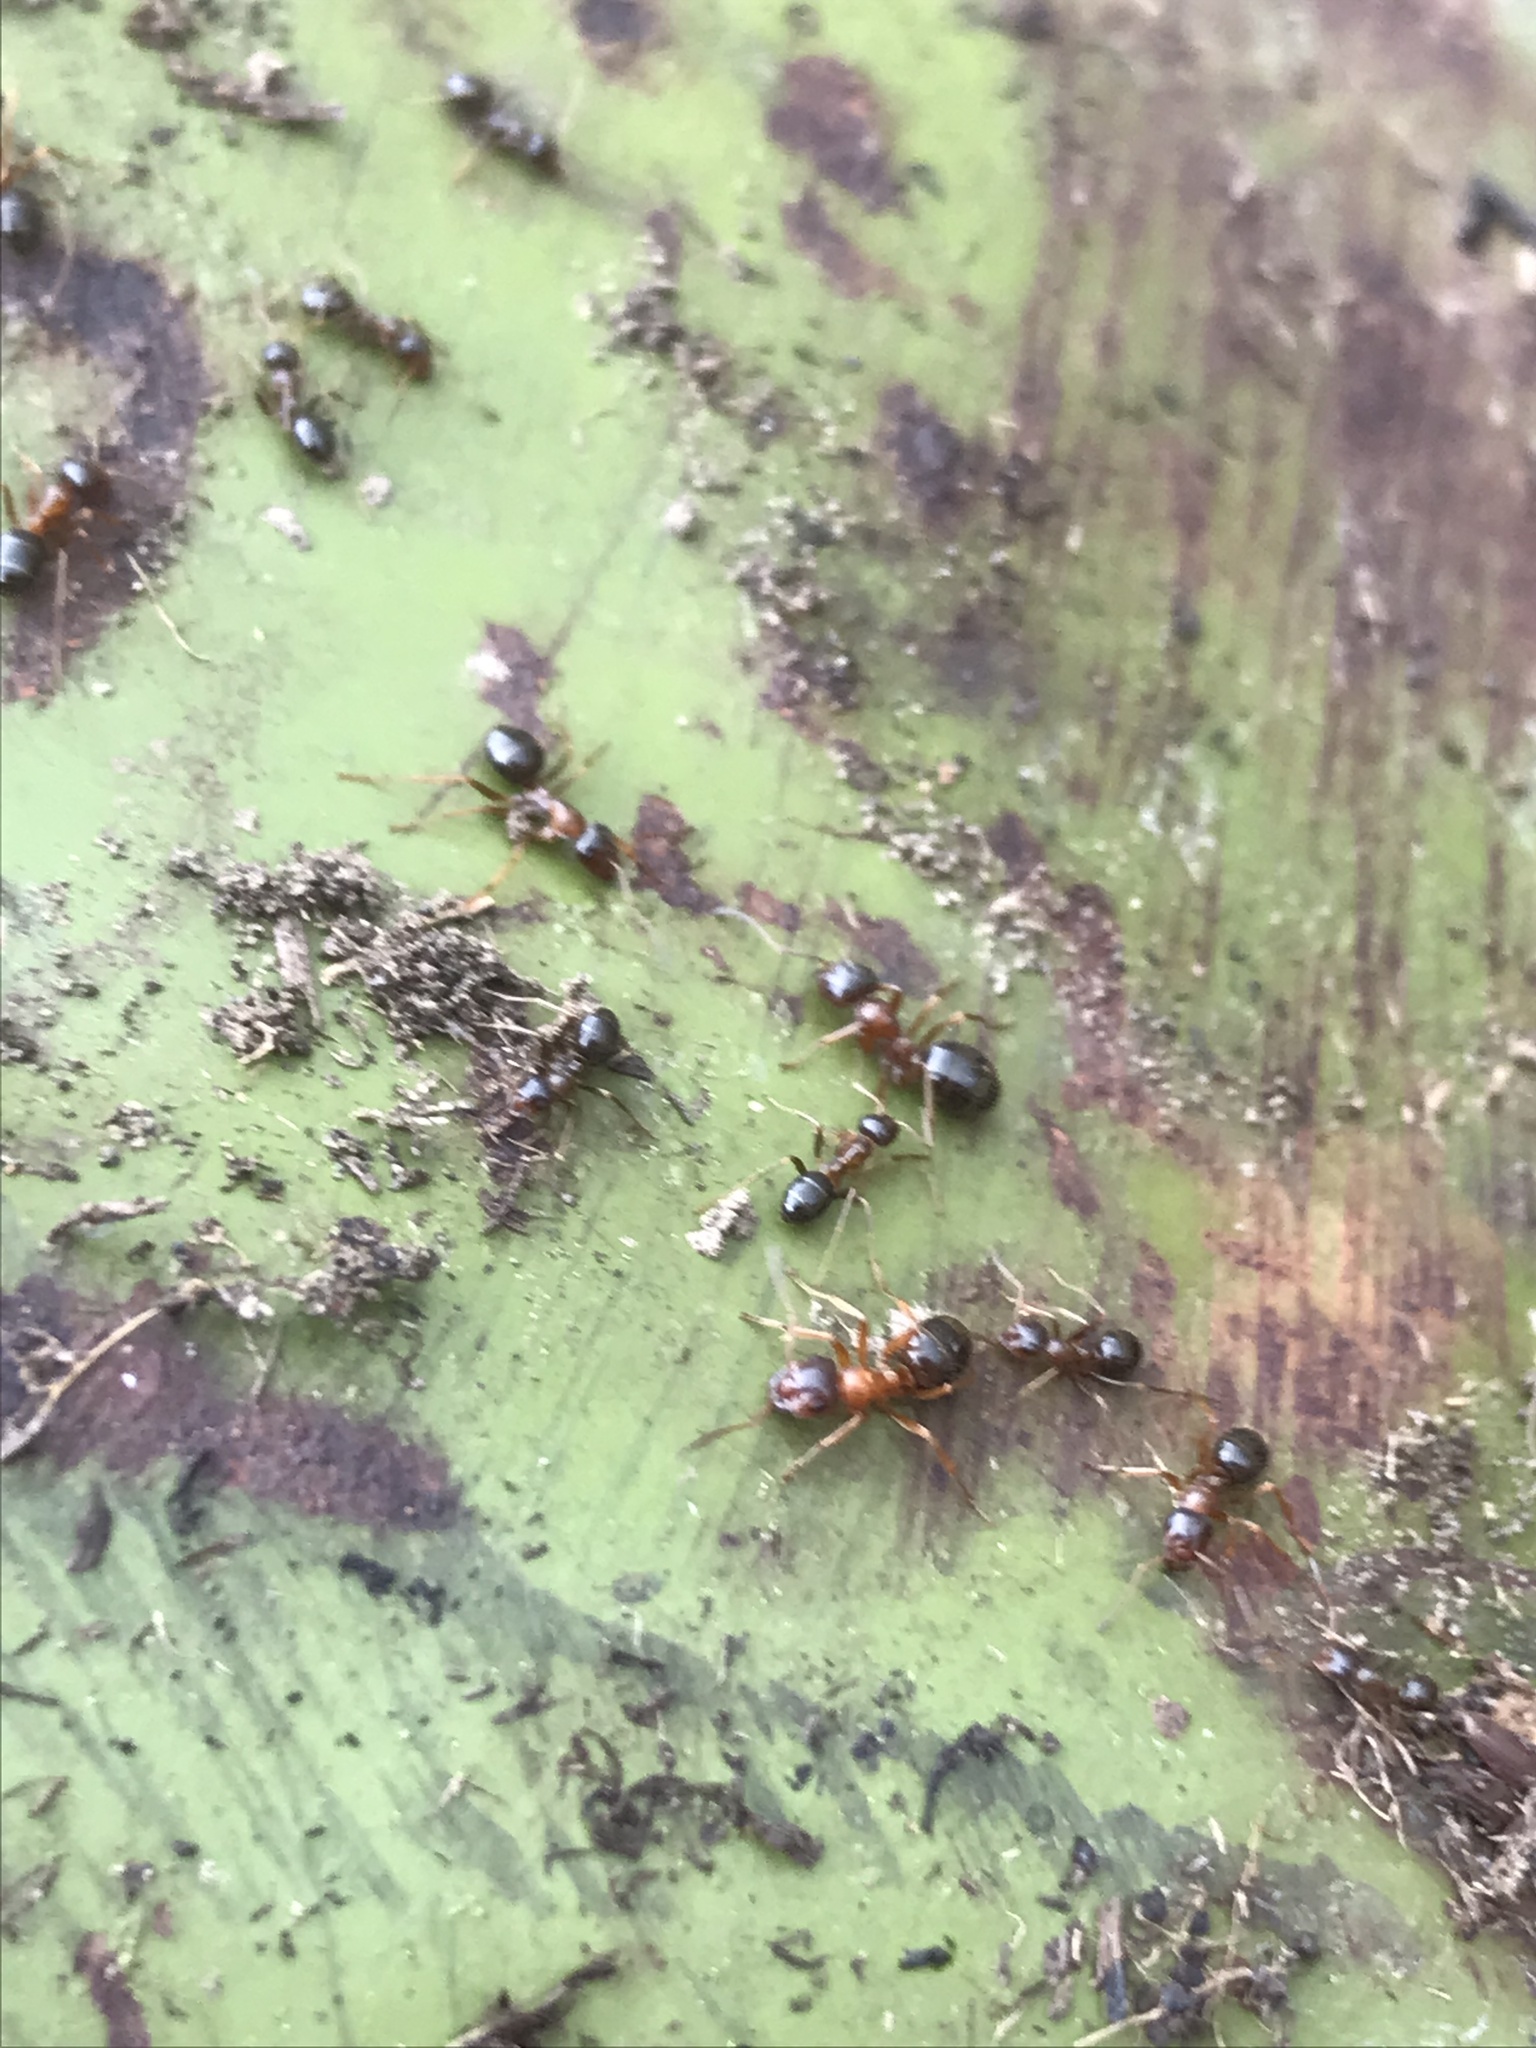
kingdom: Animalia
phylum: Arthropoda
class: Insecta
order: Hymenoptera
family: Formicidae
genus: Formica
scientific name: Formica subpolita
